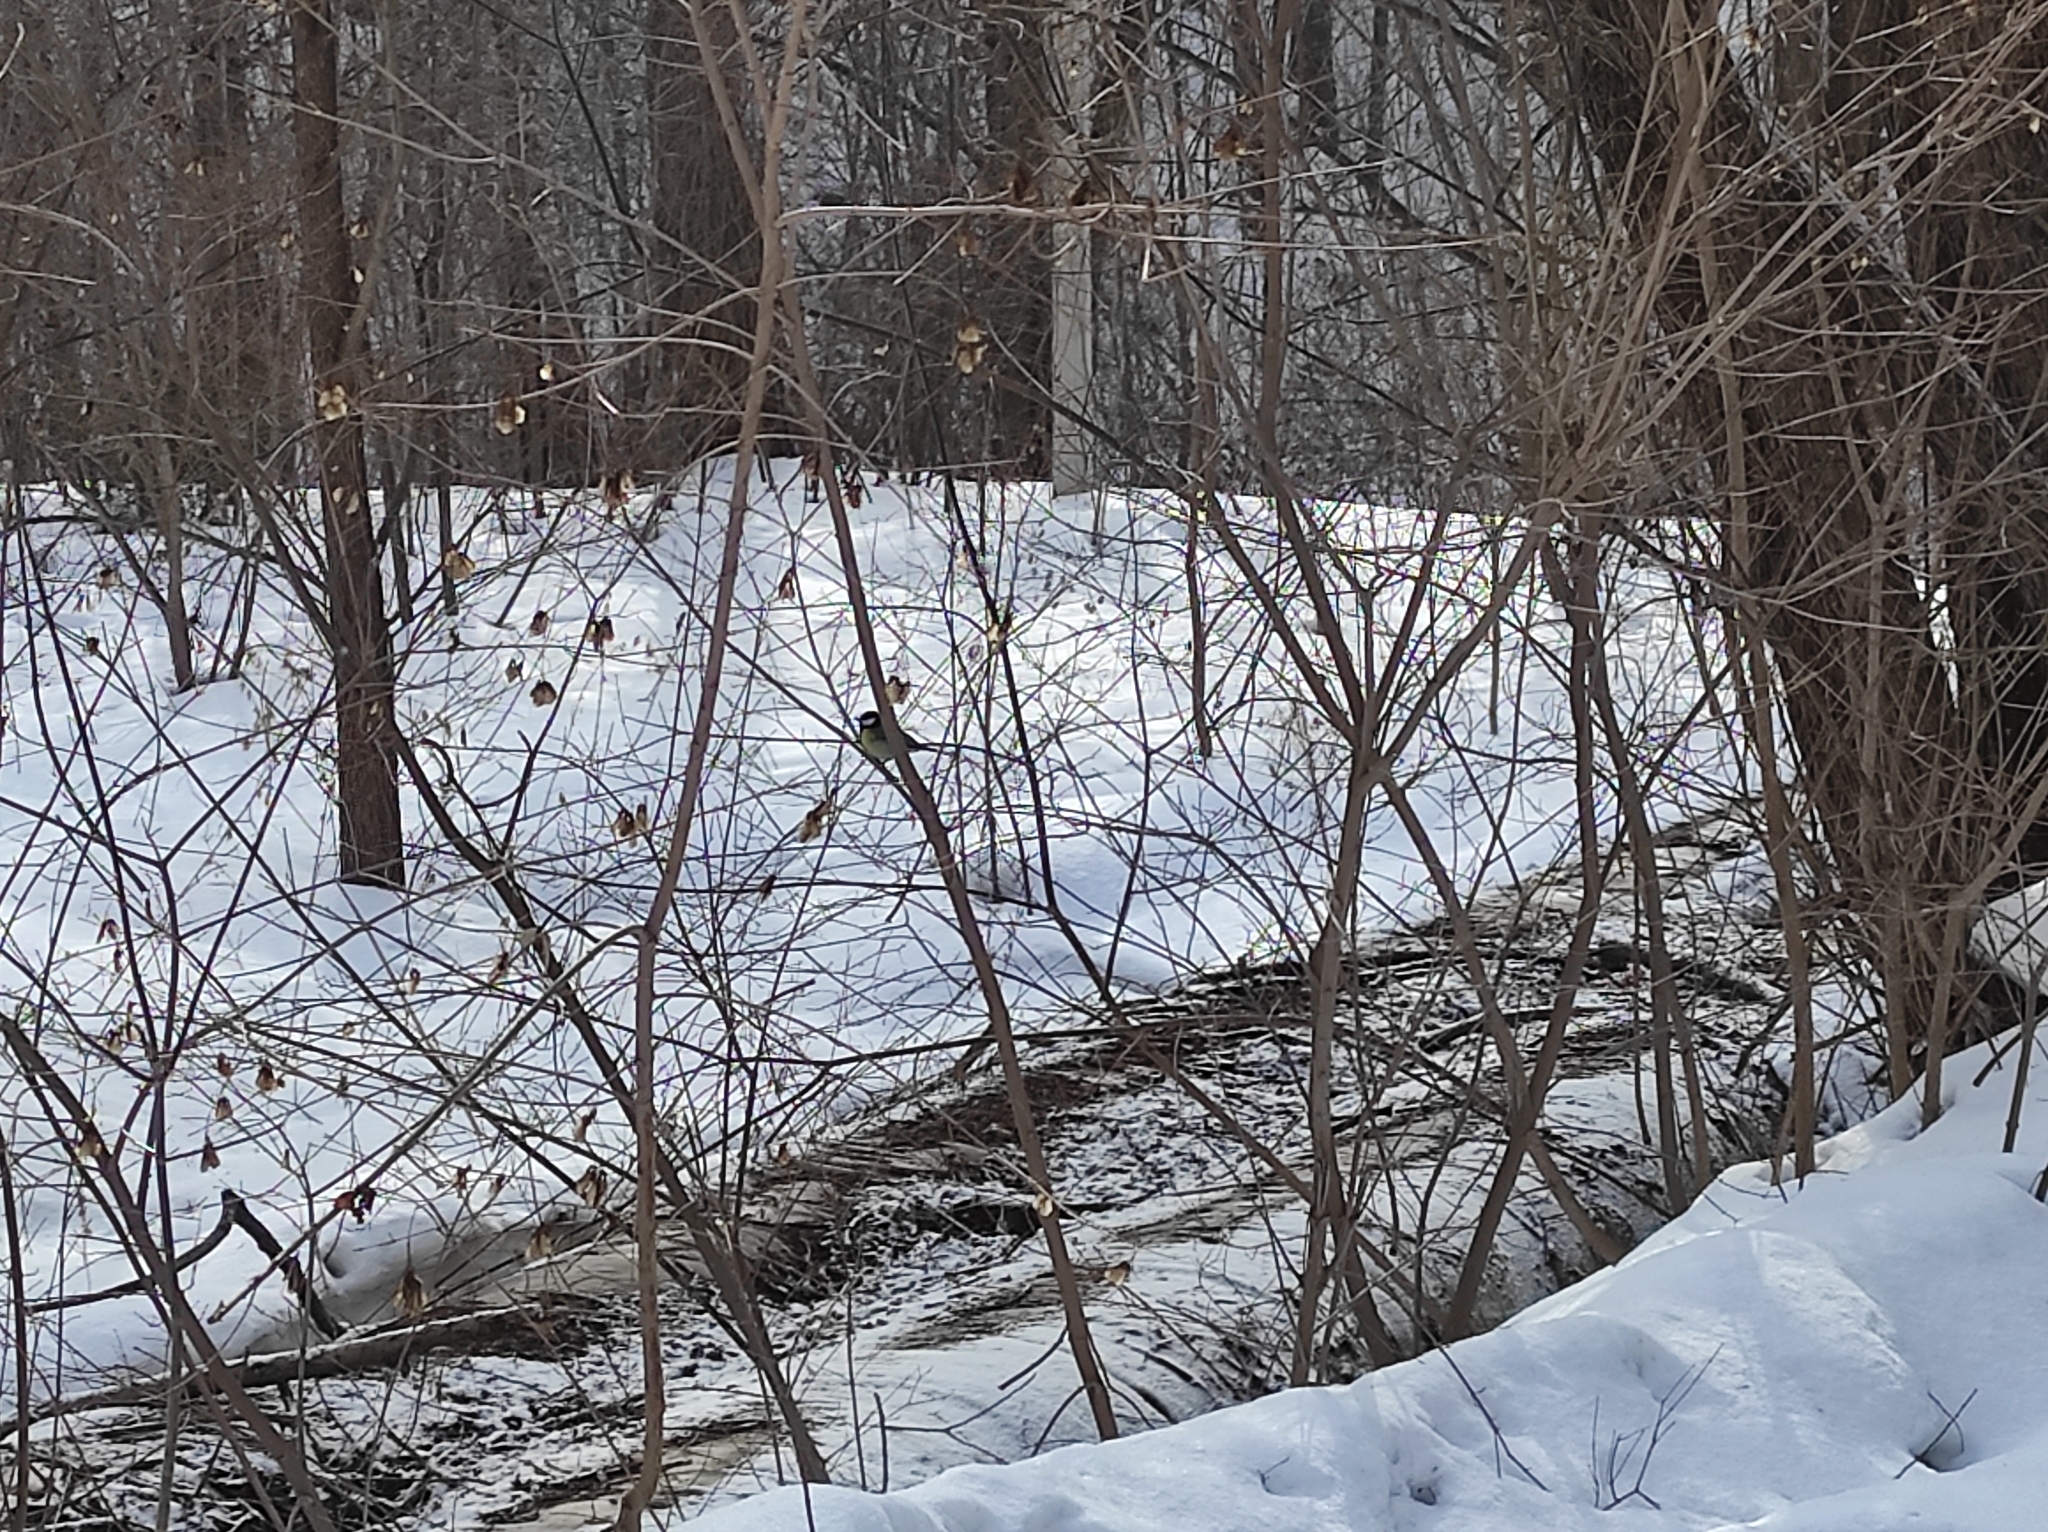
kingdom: Animalia
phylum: Chordata
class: Aves
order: Passeriformes
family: Paridae
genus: Parus
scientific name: Parus major
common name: Great tit
